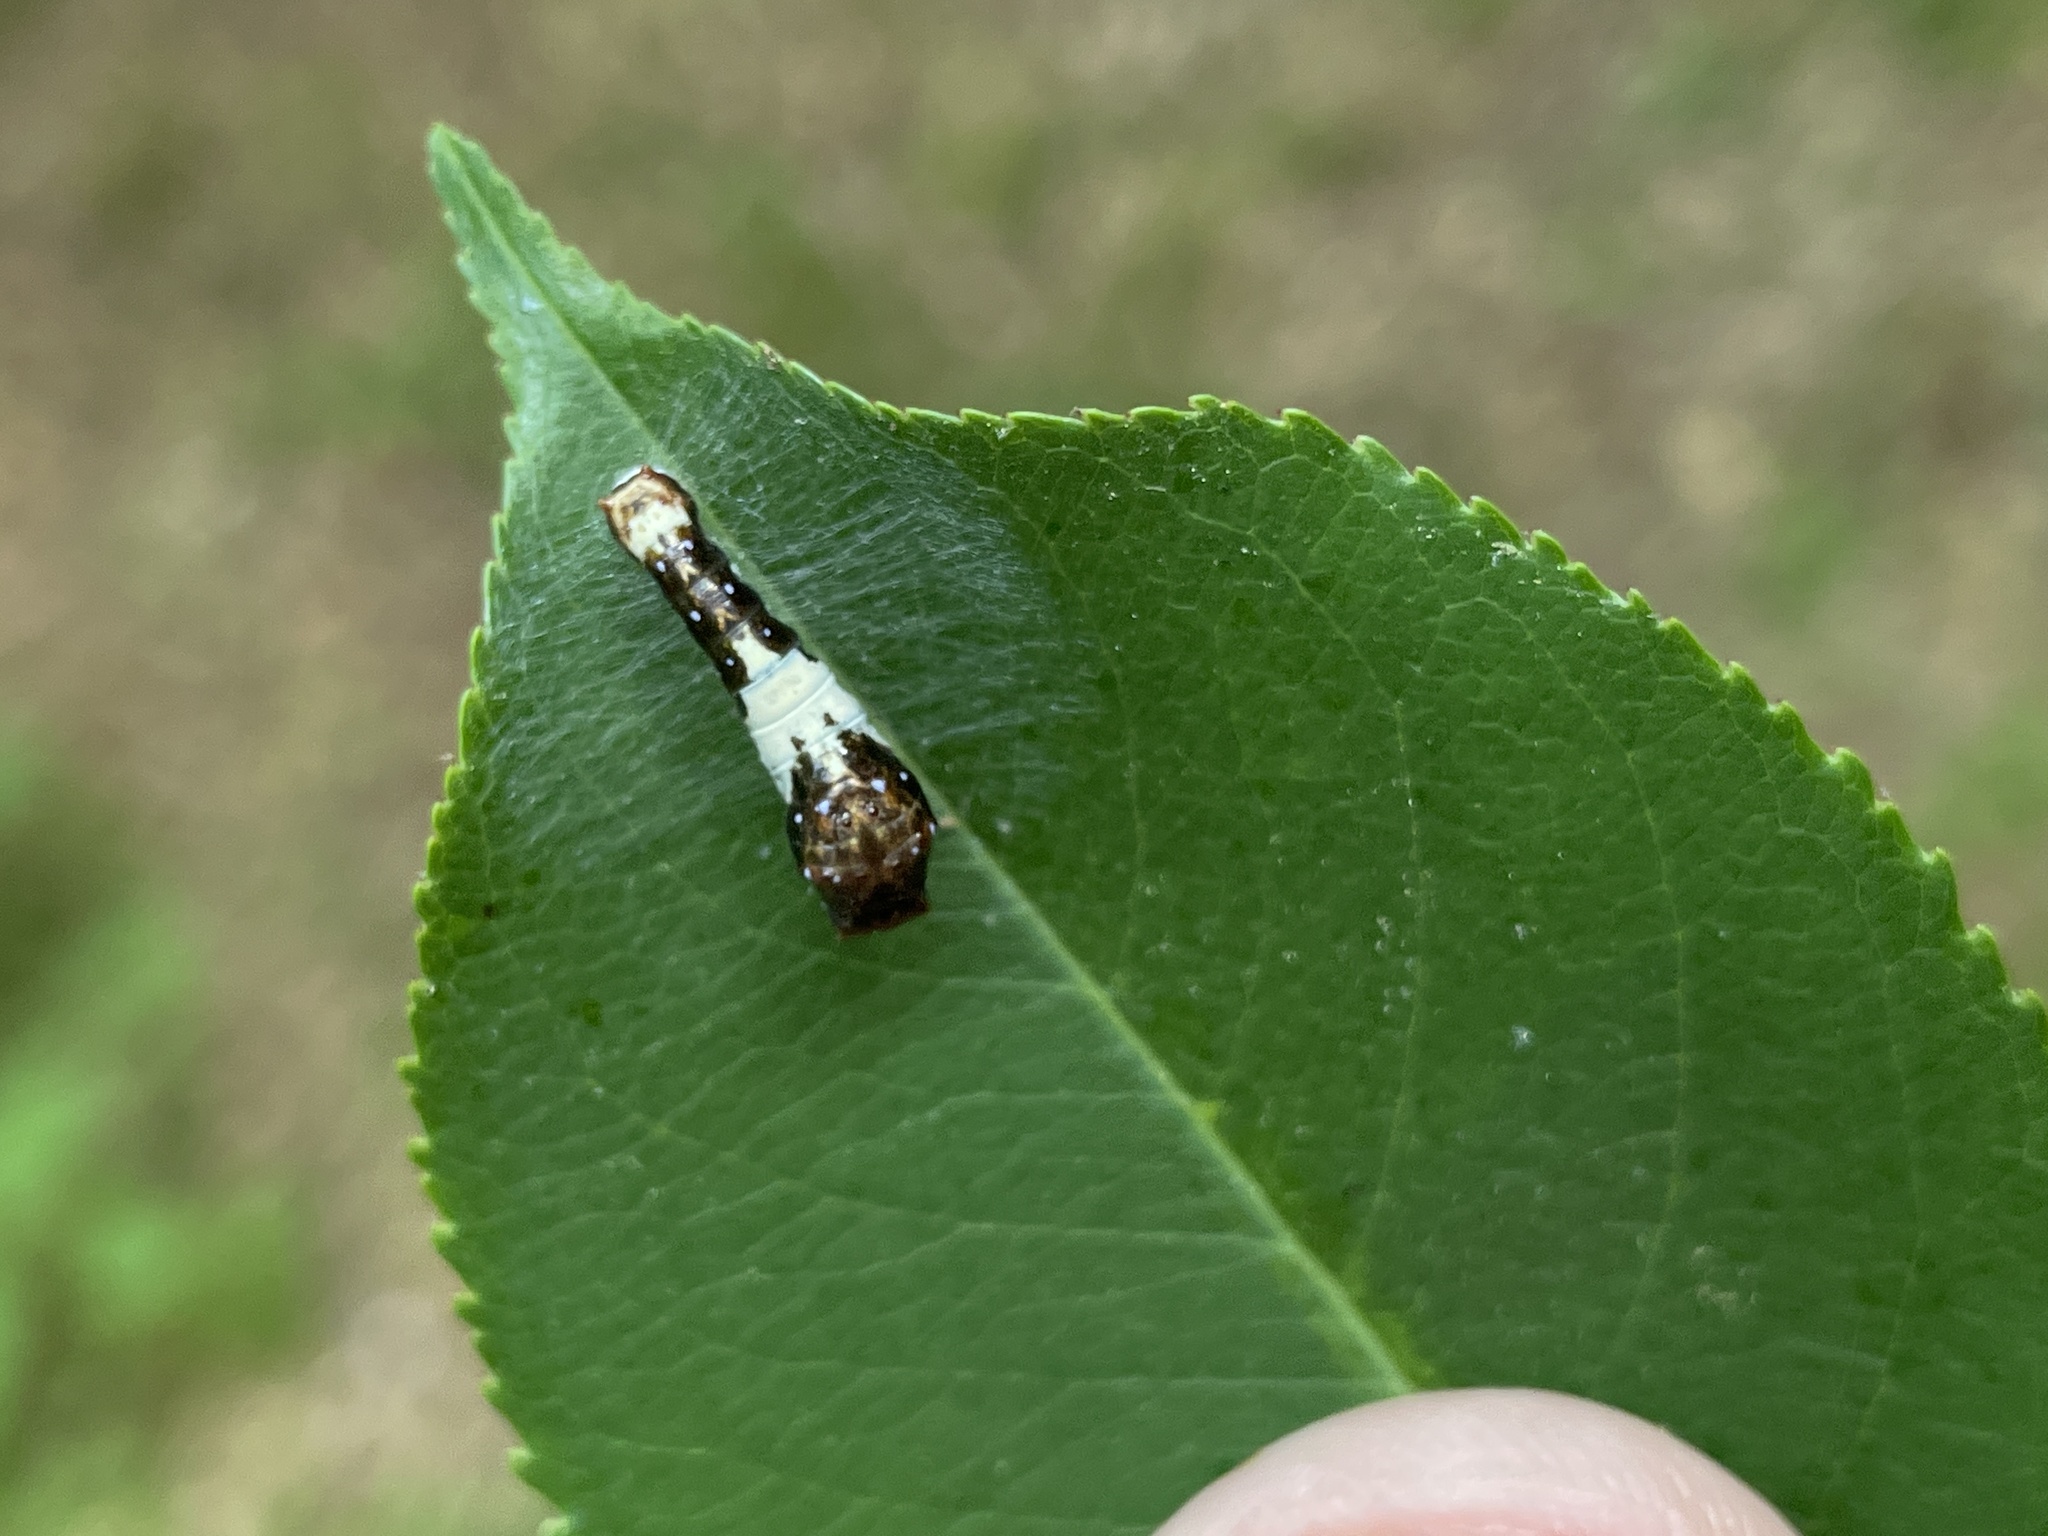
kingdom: Animalia
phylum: Arthropoda
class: Insecta
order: Lepidoptera
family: Papilionidae
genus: Papilio
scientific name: Papilio glaucus
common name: Tiger swallowtail
